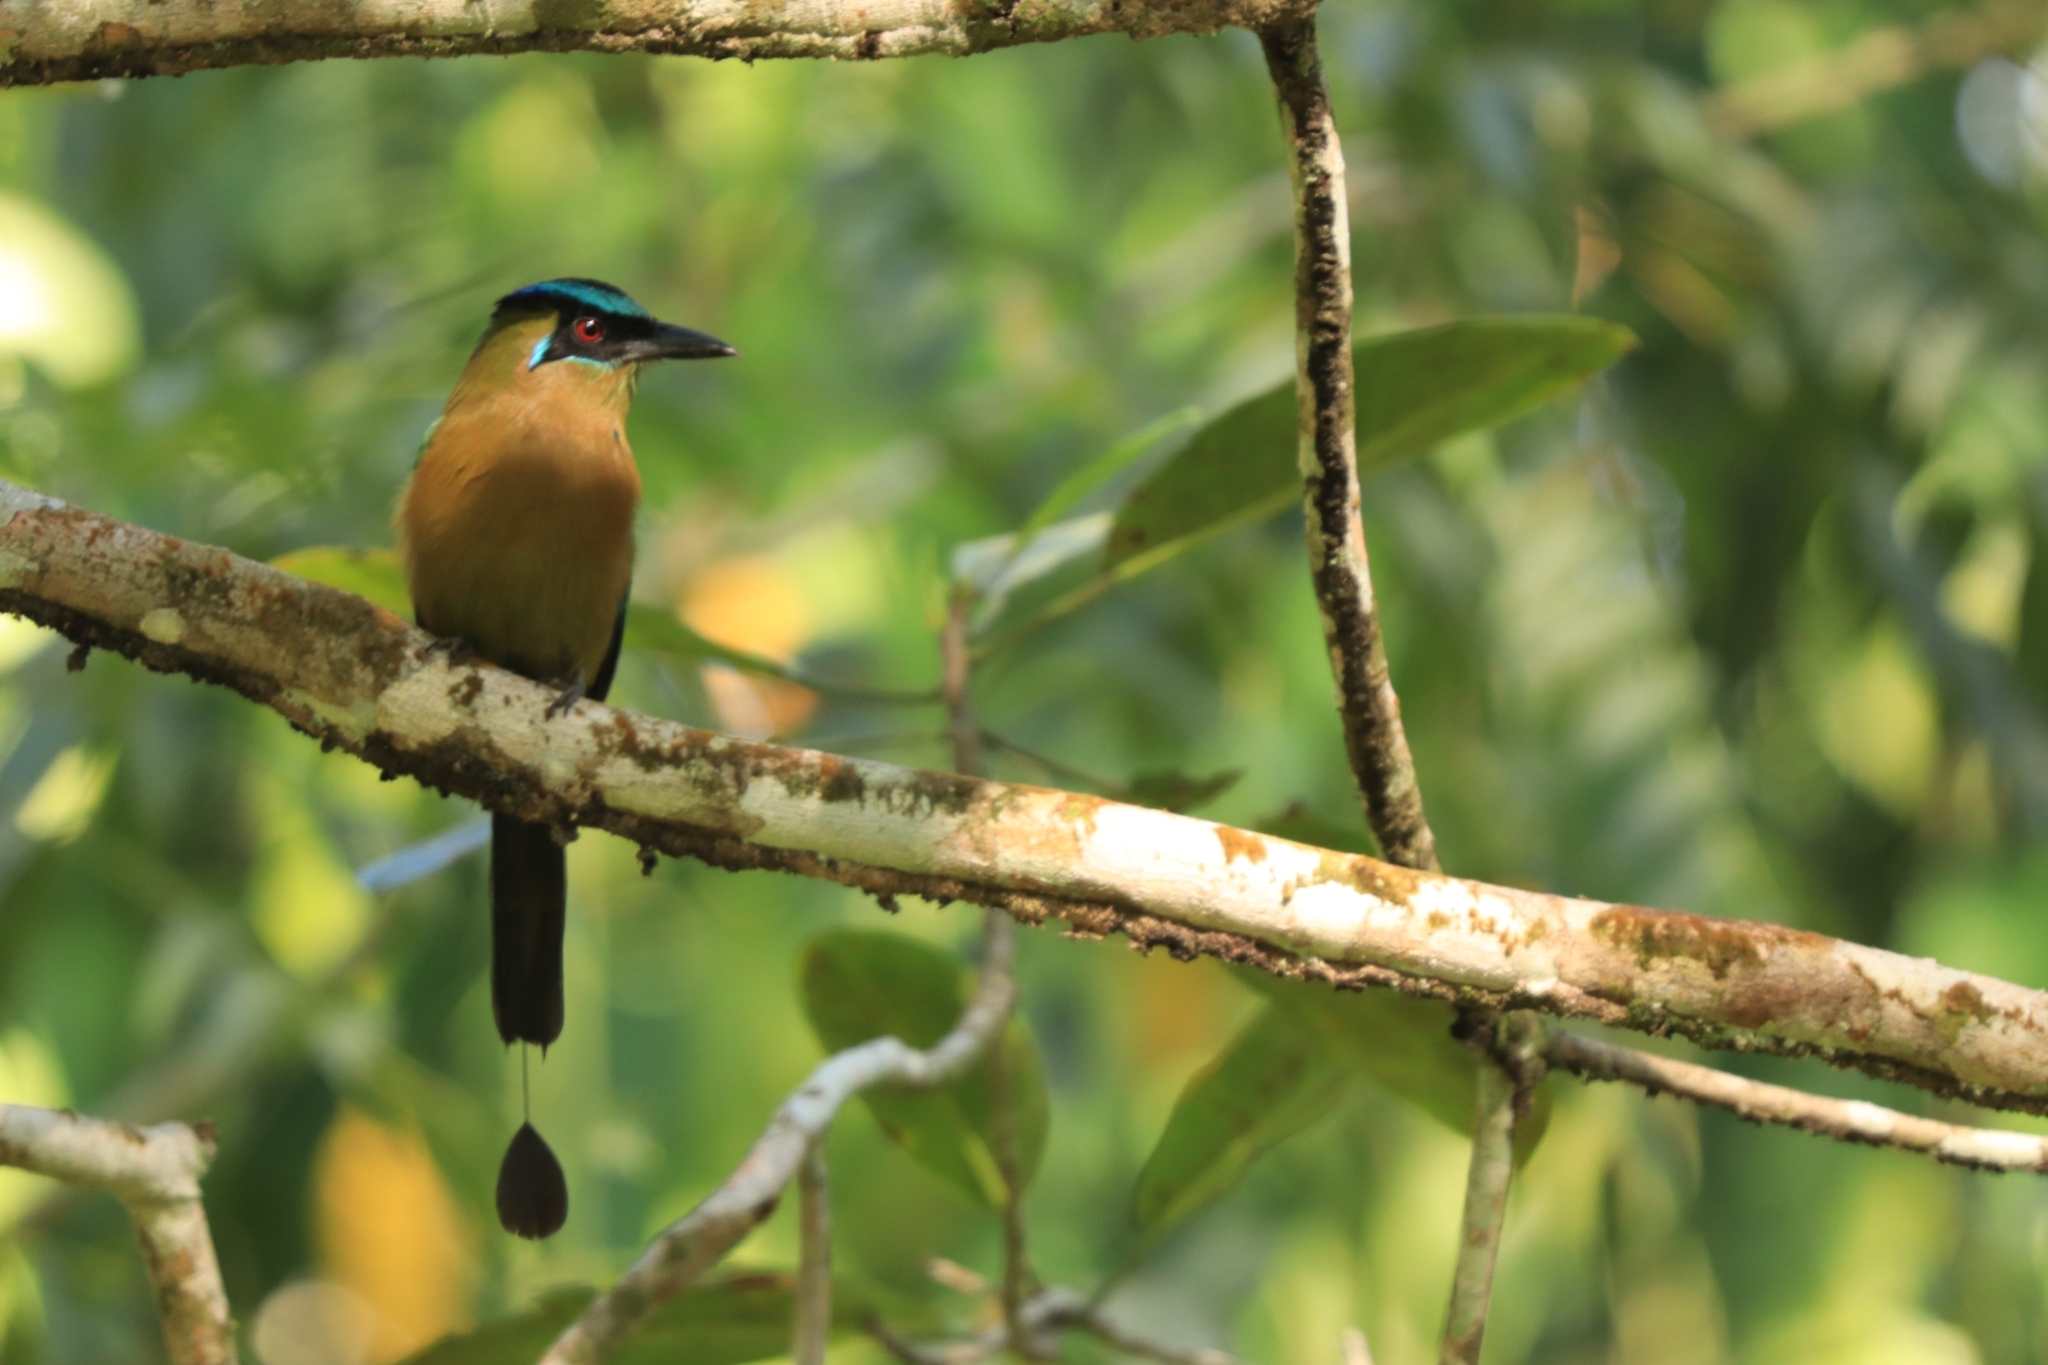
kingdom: Animalia
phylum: Chordata
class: Aves
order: Coraciiformes
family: Momotidae
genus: Momotus
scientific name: Momotus lessonii
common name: Lesson's motmot
